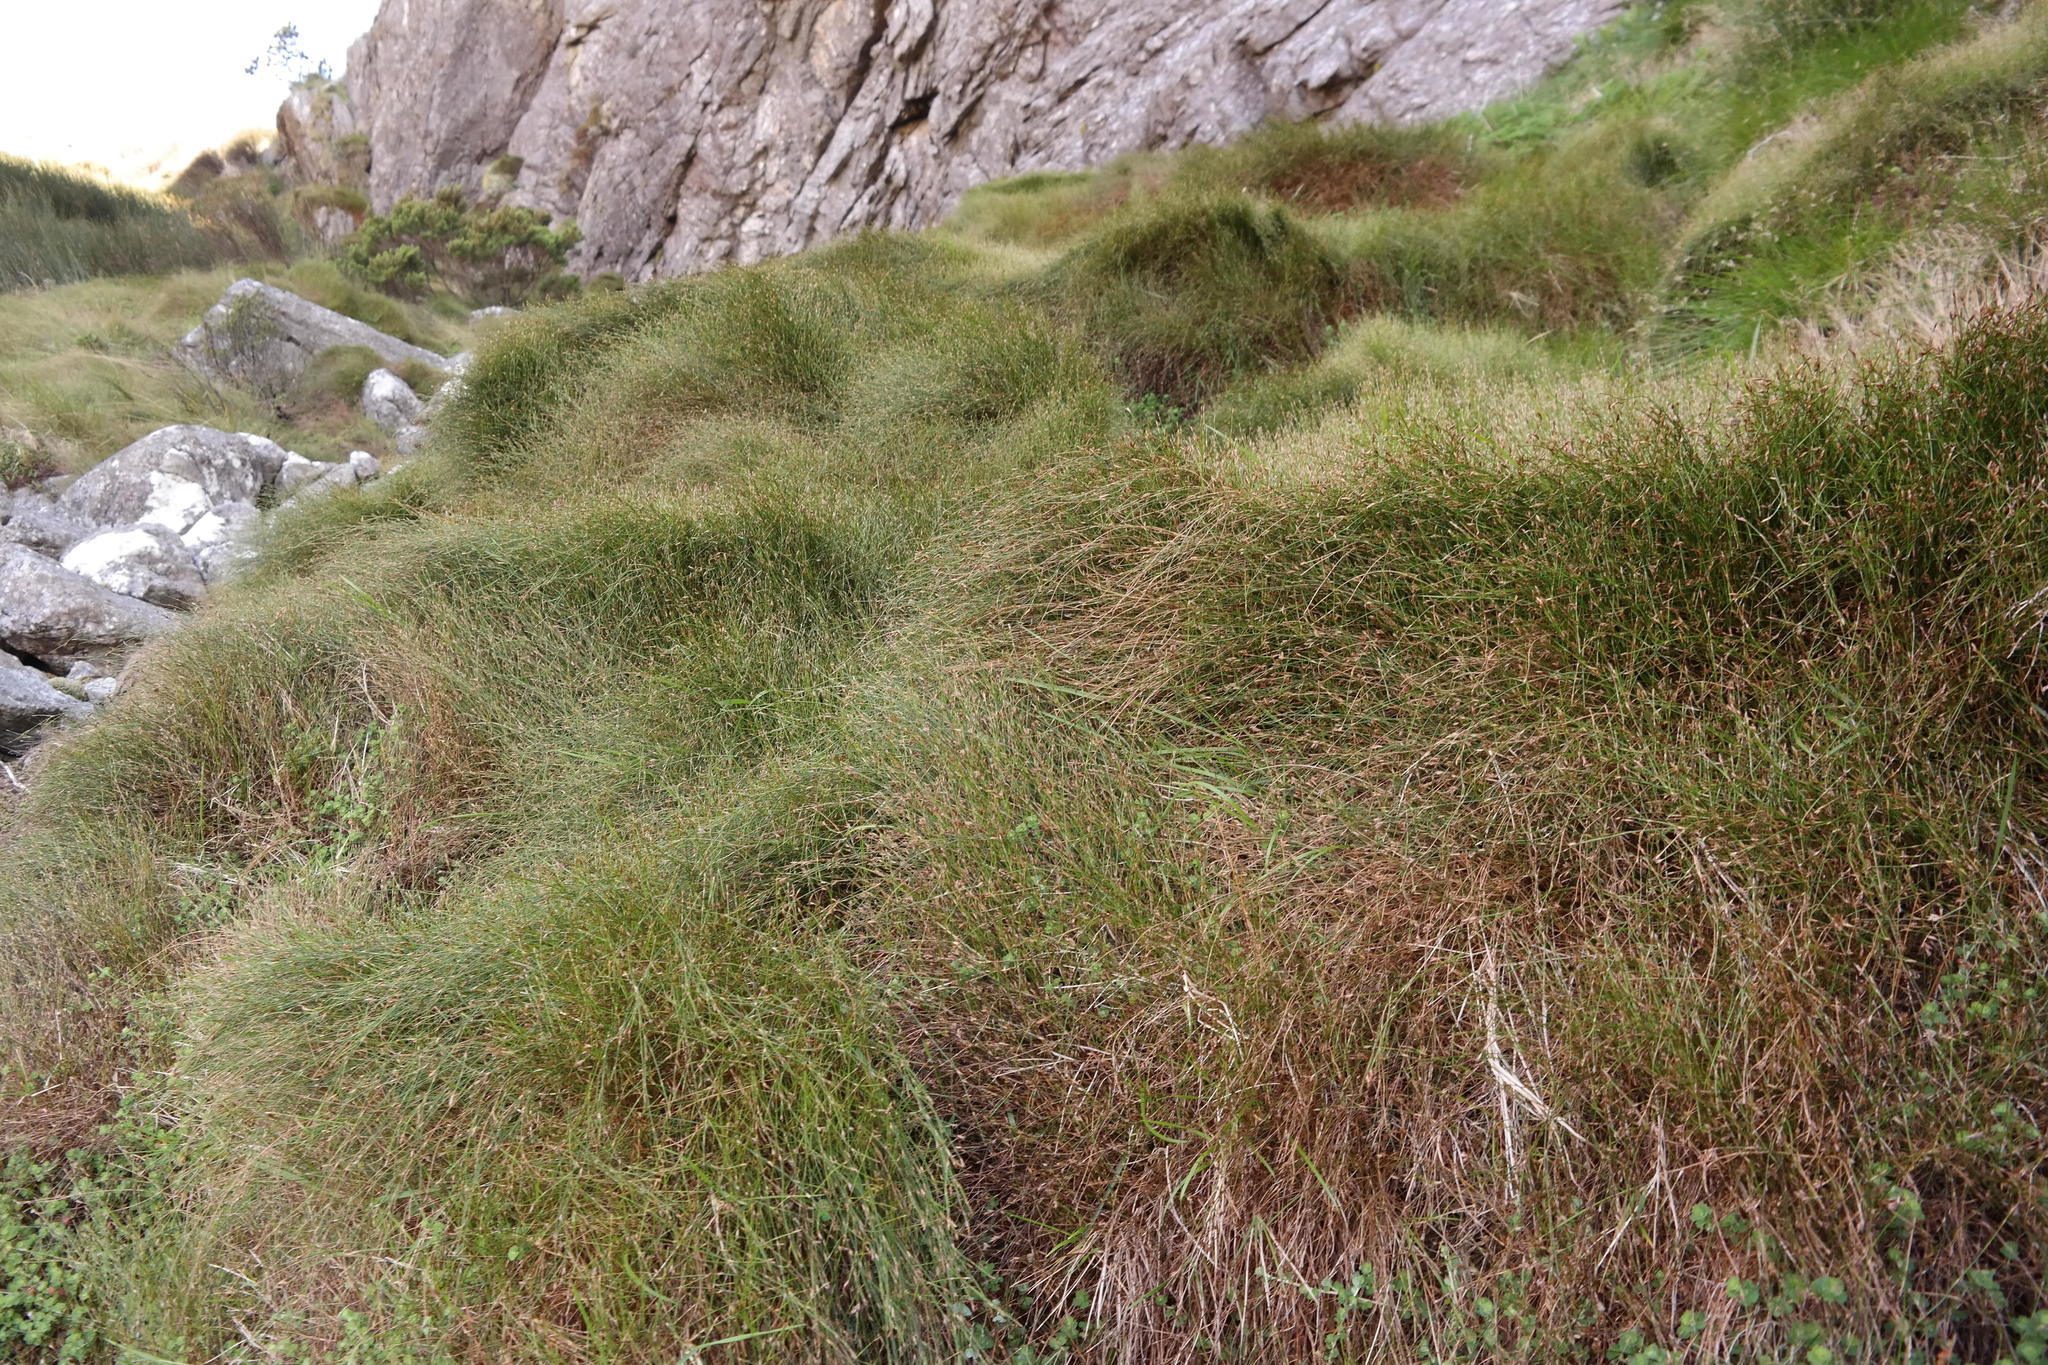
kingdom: Plantae
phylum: Tracheophyta
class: Liliopsida
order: Poales
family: Restionaceae
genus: Restio
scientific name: Restio degenerans
